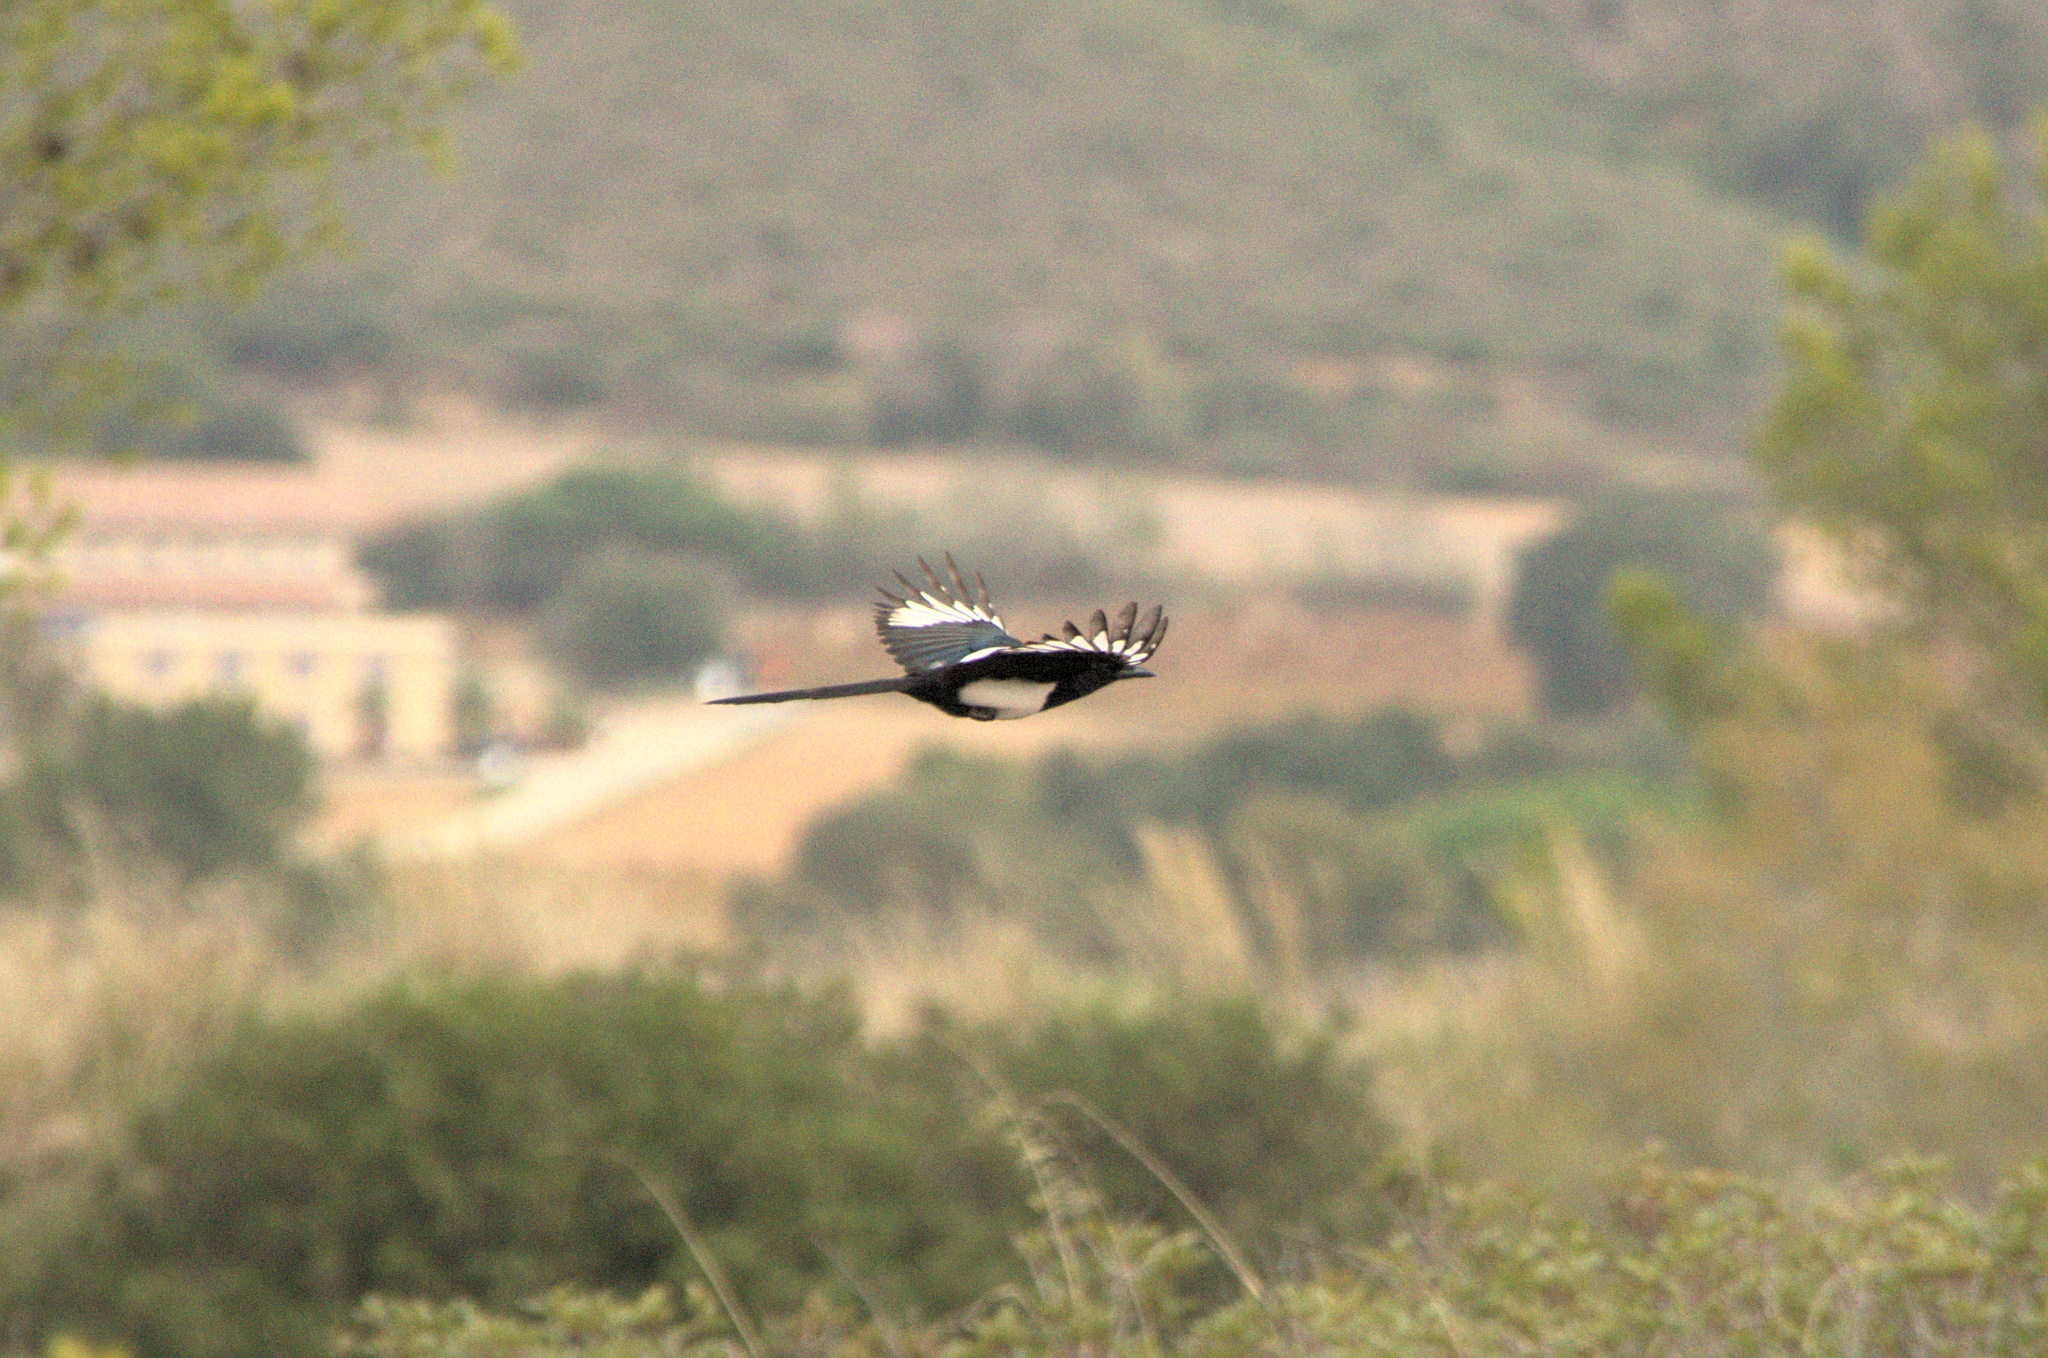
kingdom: Animalia
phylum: Chordata
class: Aves
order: Passeriformes
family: Corvidae
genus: Pica
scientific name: Pica pica
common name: Eurasian magpie
